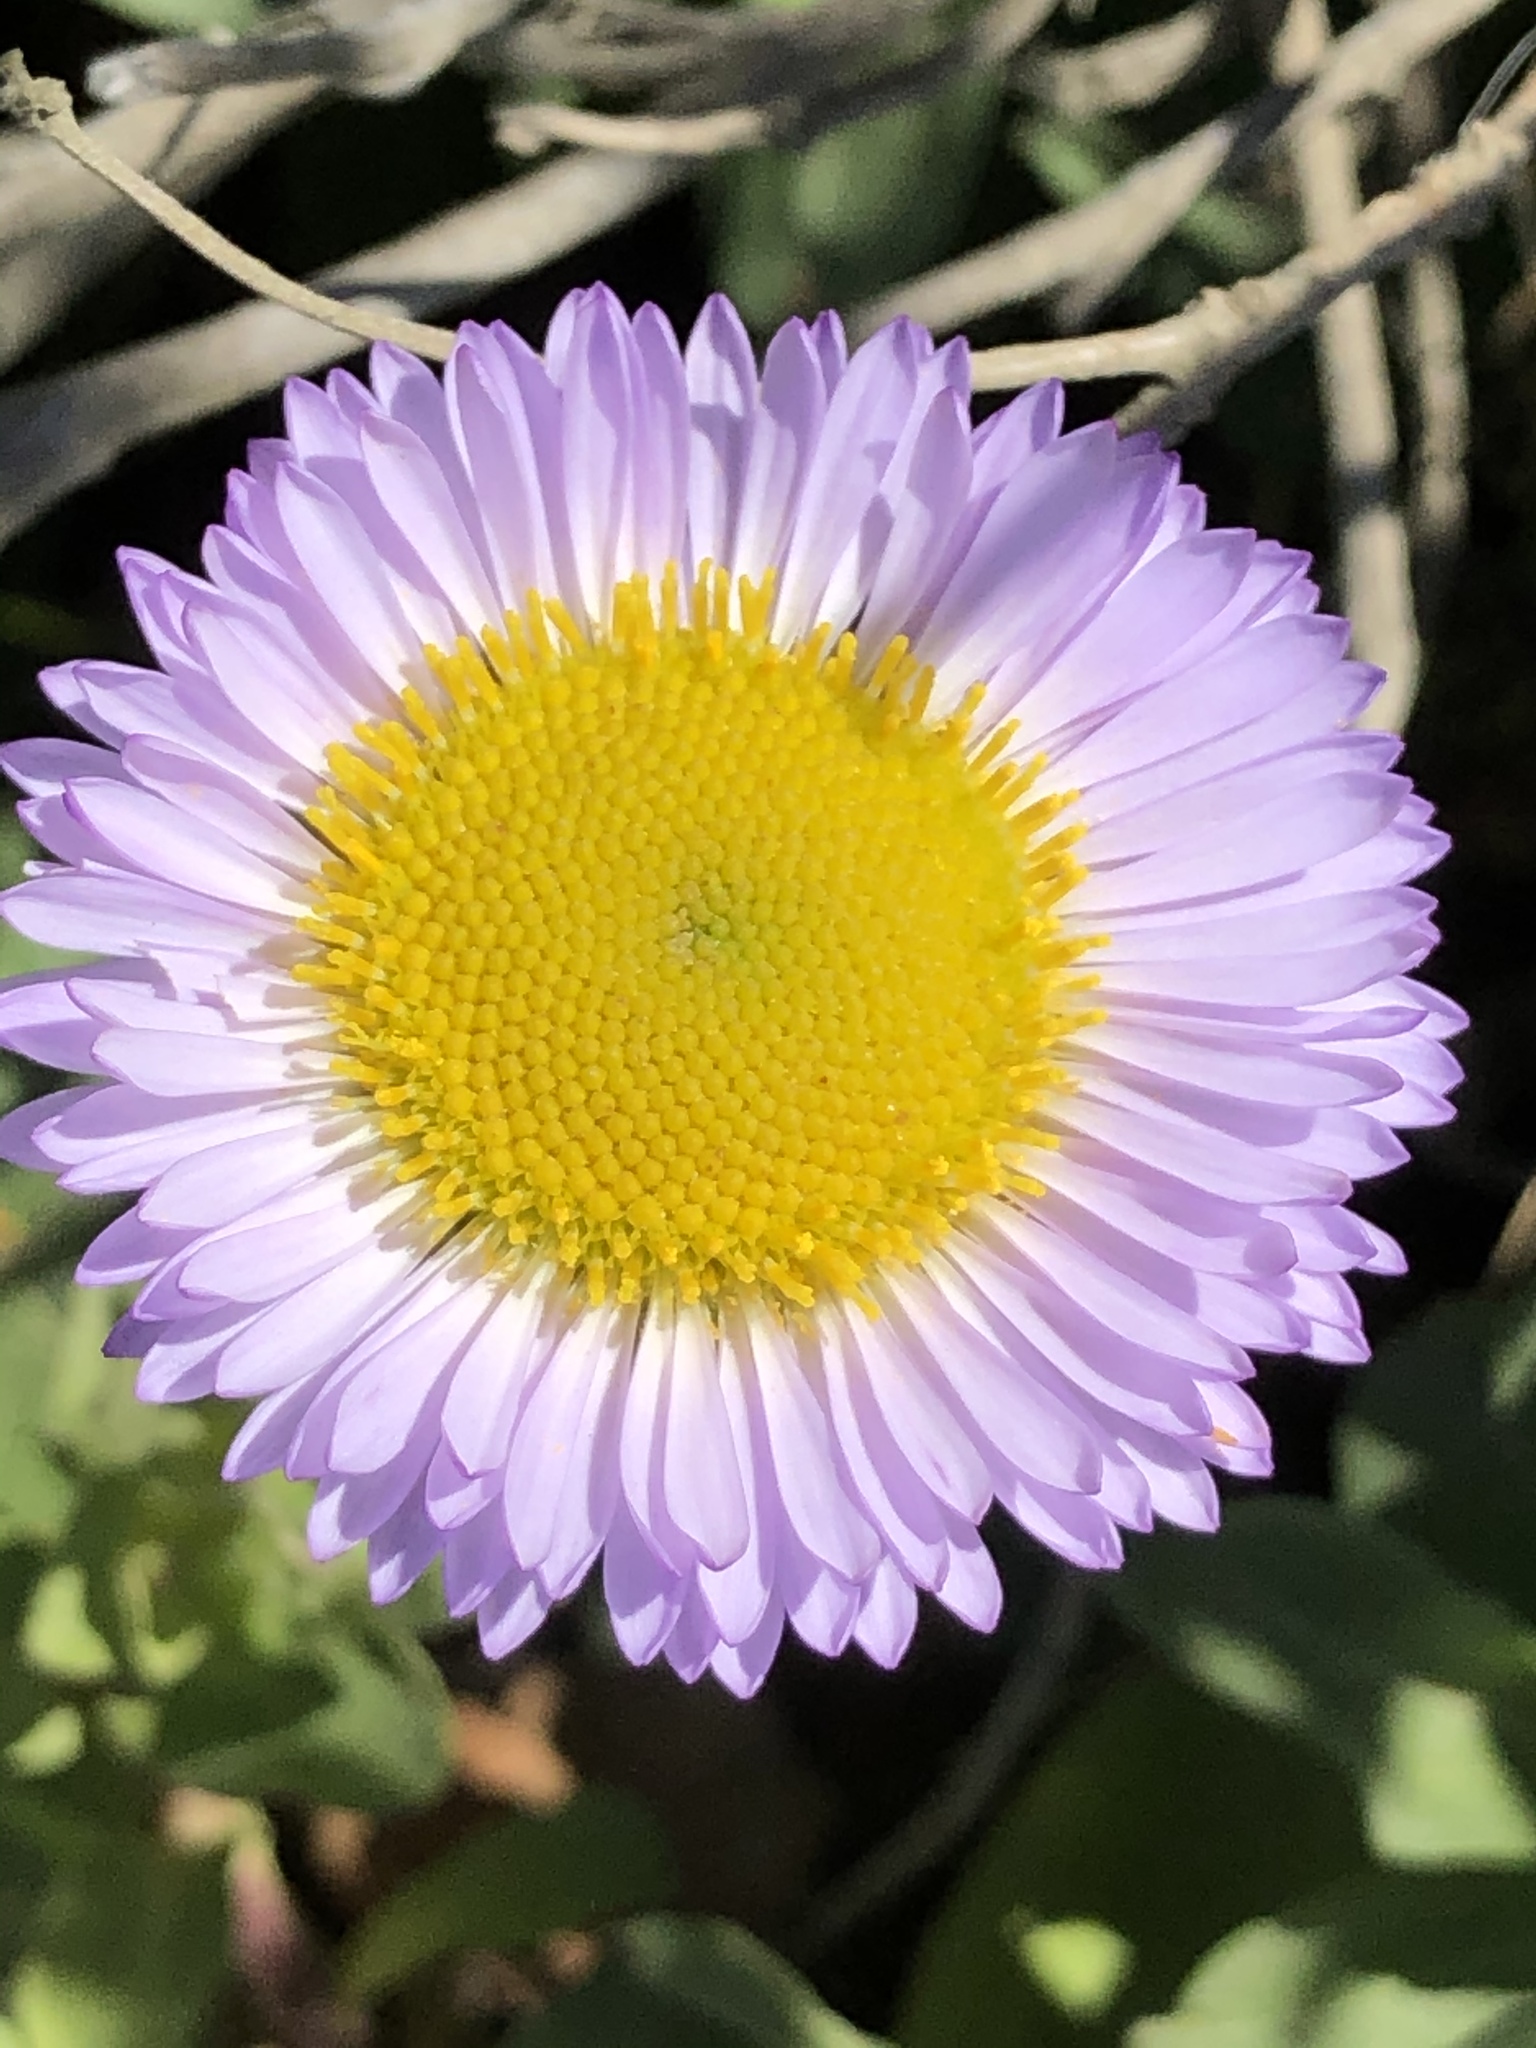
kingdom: Plantae
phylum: Tracheophyta
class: Magnoliopsida
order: Asterales
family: Asteraceae
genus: Erigeron
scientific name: Erigeron glaucus
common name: Seaside daisy
